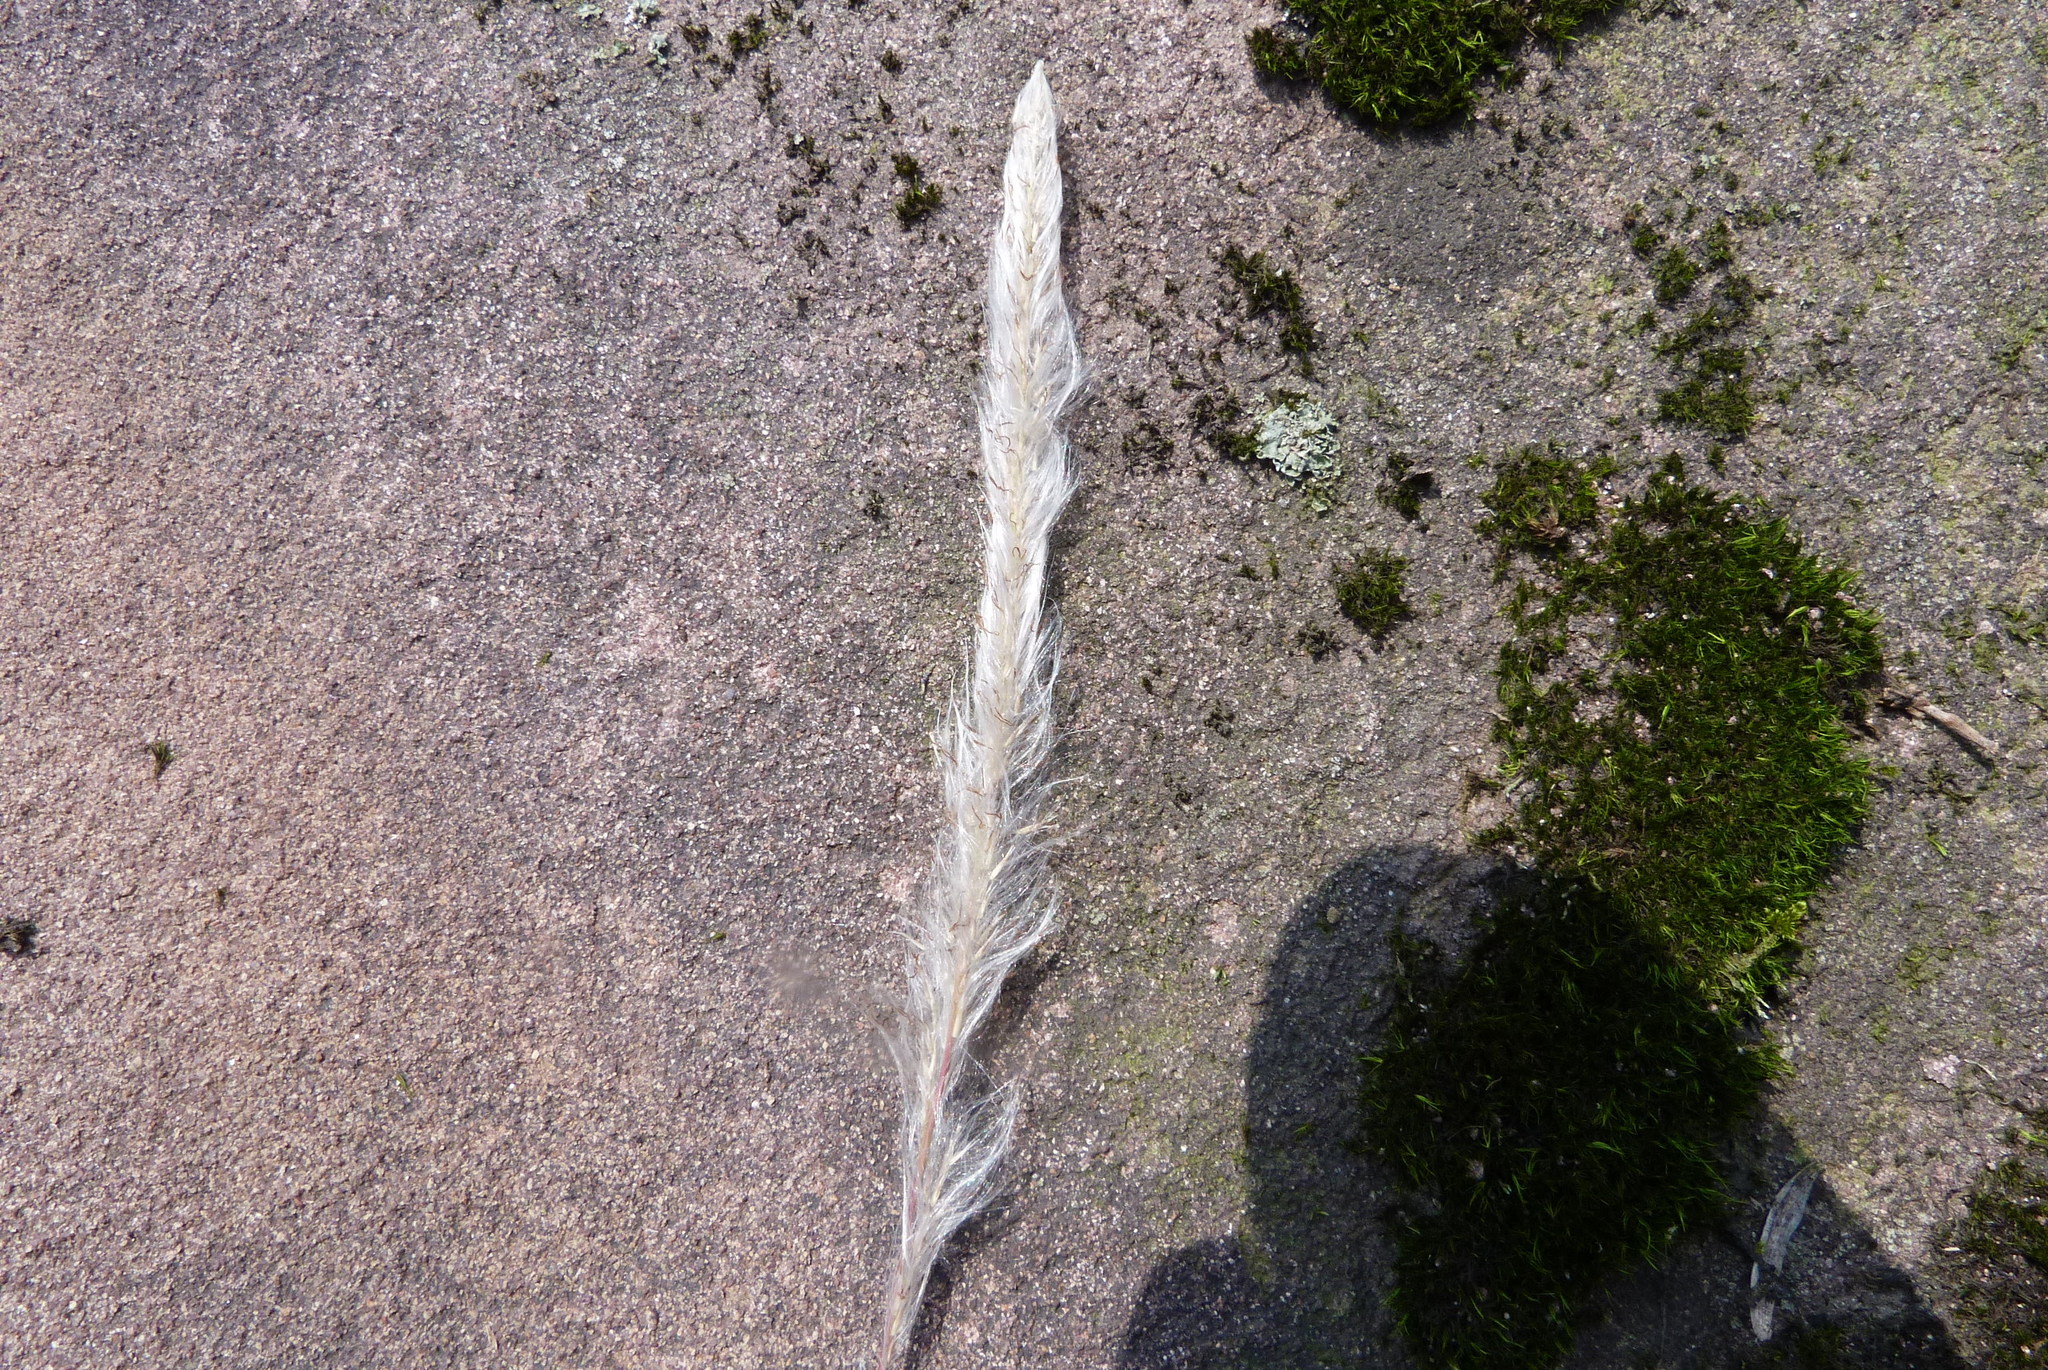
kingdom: Plantae
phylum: Tracheophyta
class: Liliopsida
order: Poales
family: Poaceae
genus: Imperata
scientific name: Imperata cylindrica
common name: Cogongrass
